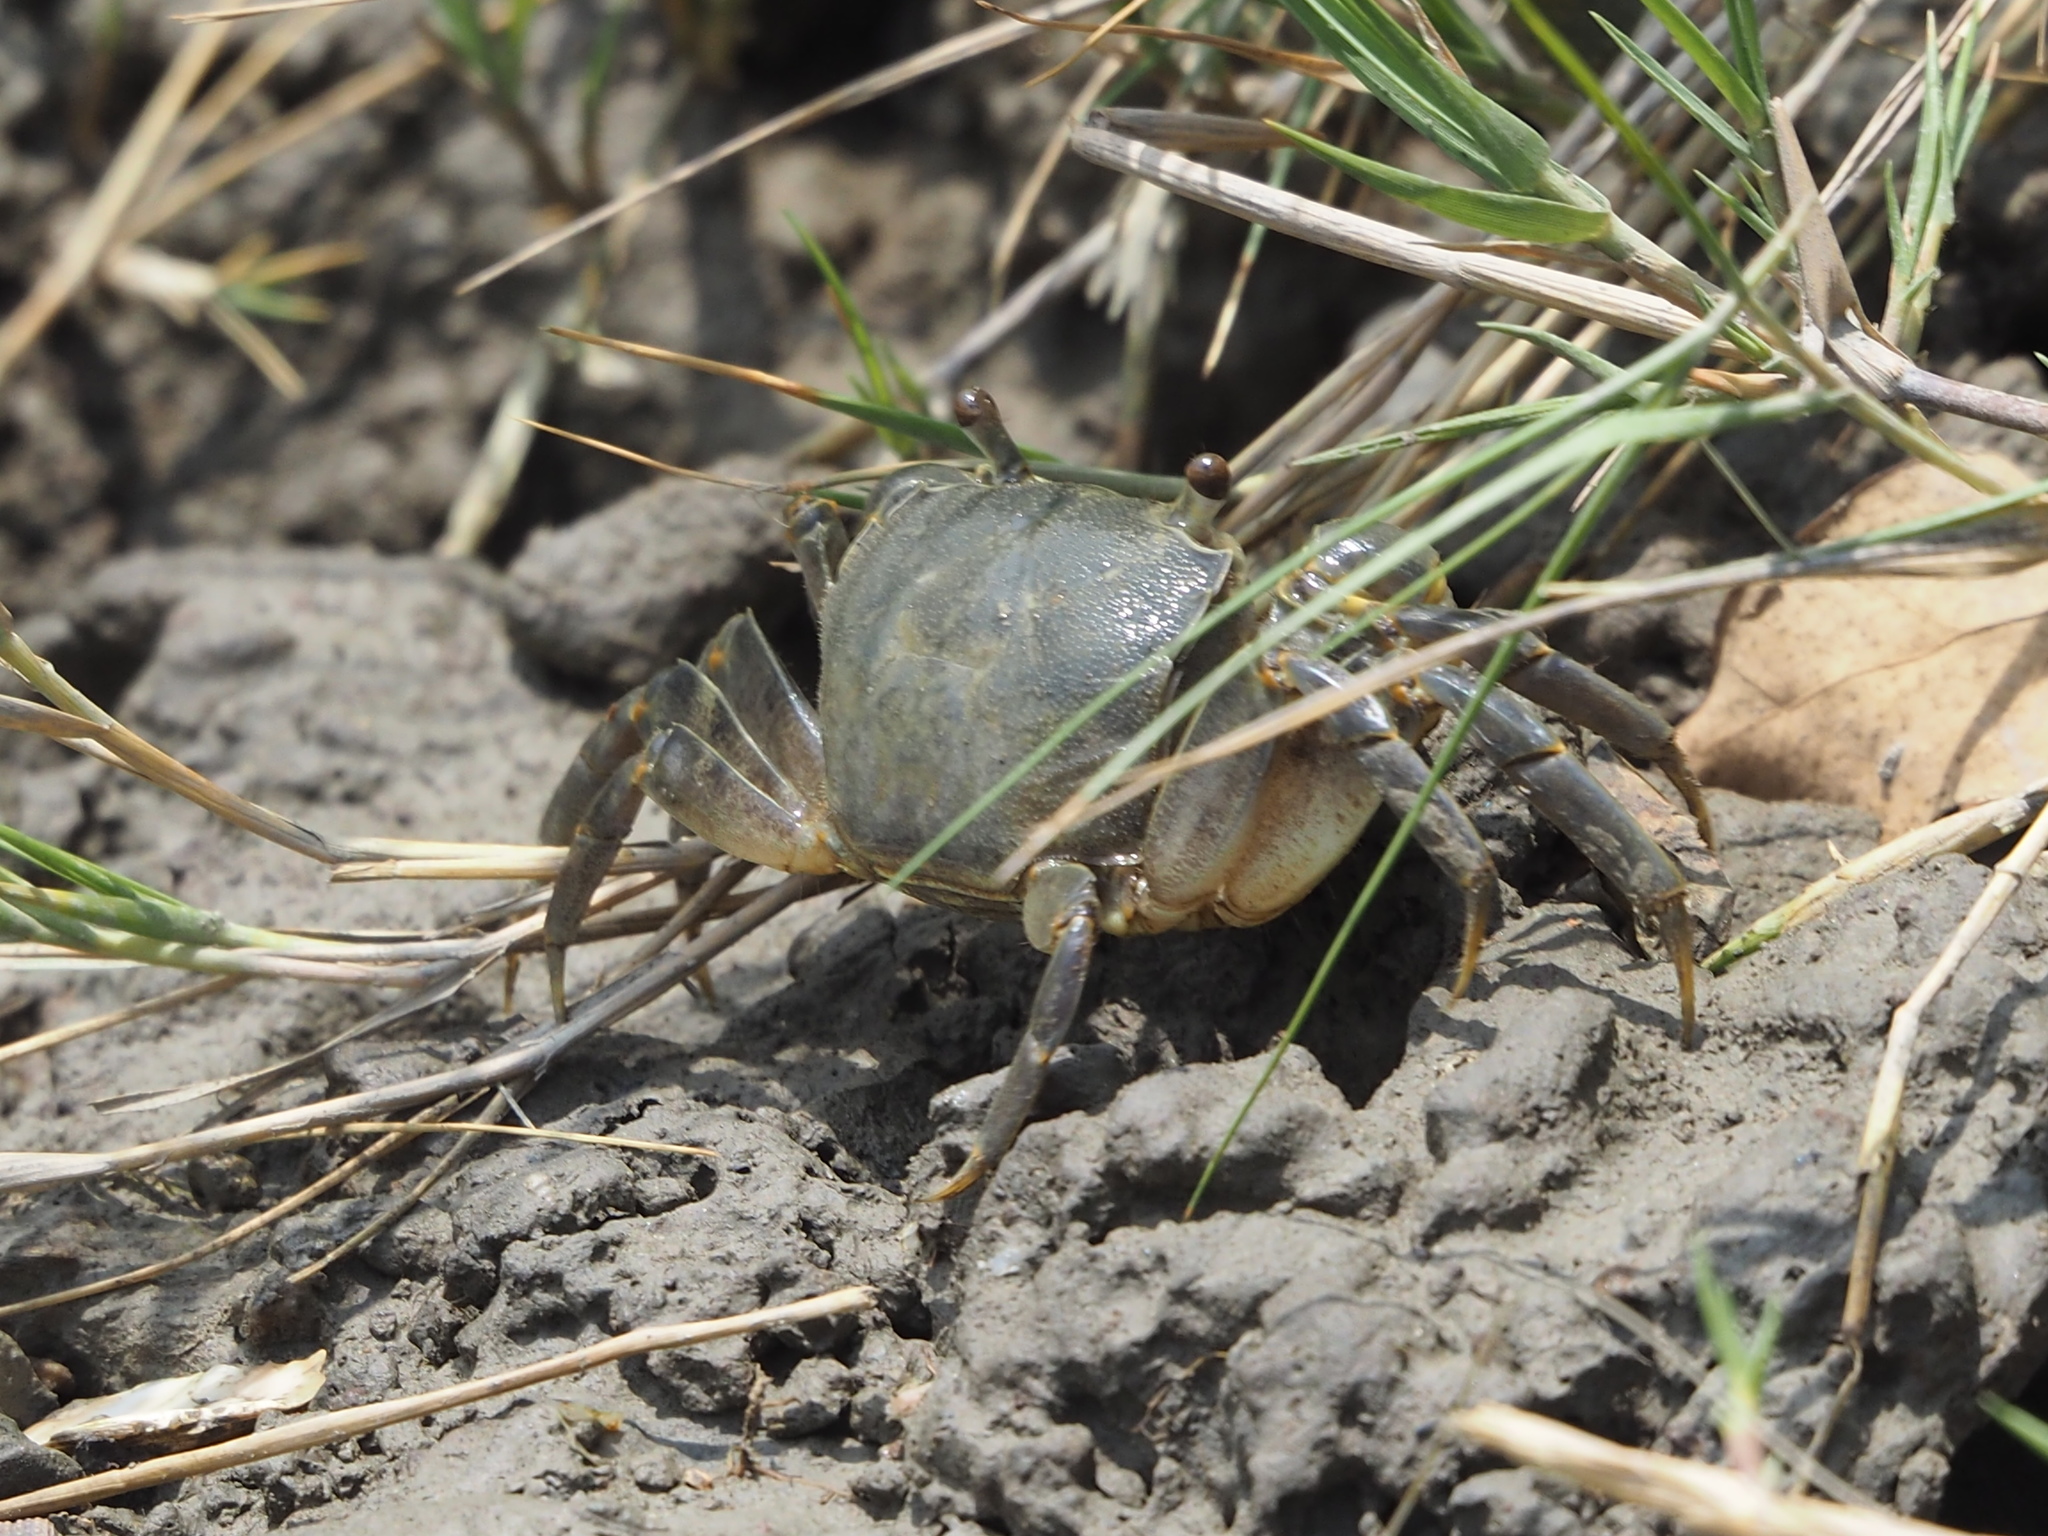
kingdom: Animalia
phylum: Arthropoda
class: Malacostraca
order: Decapoda
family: Varunidae
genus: Helice
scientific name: Helice formosensis
